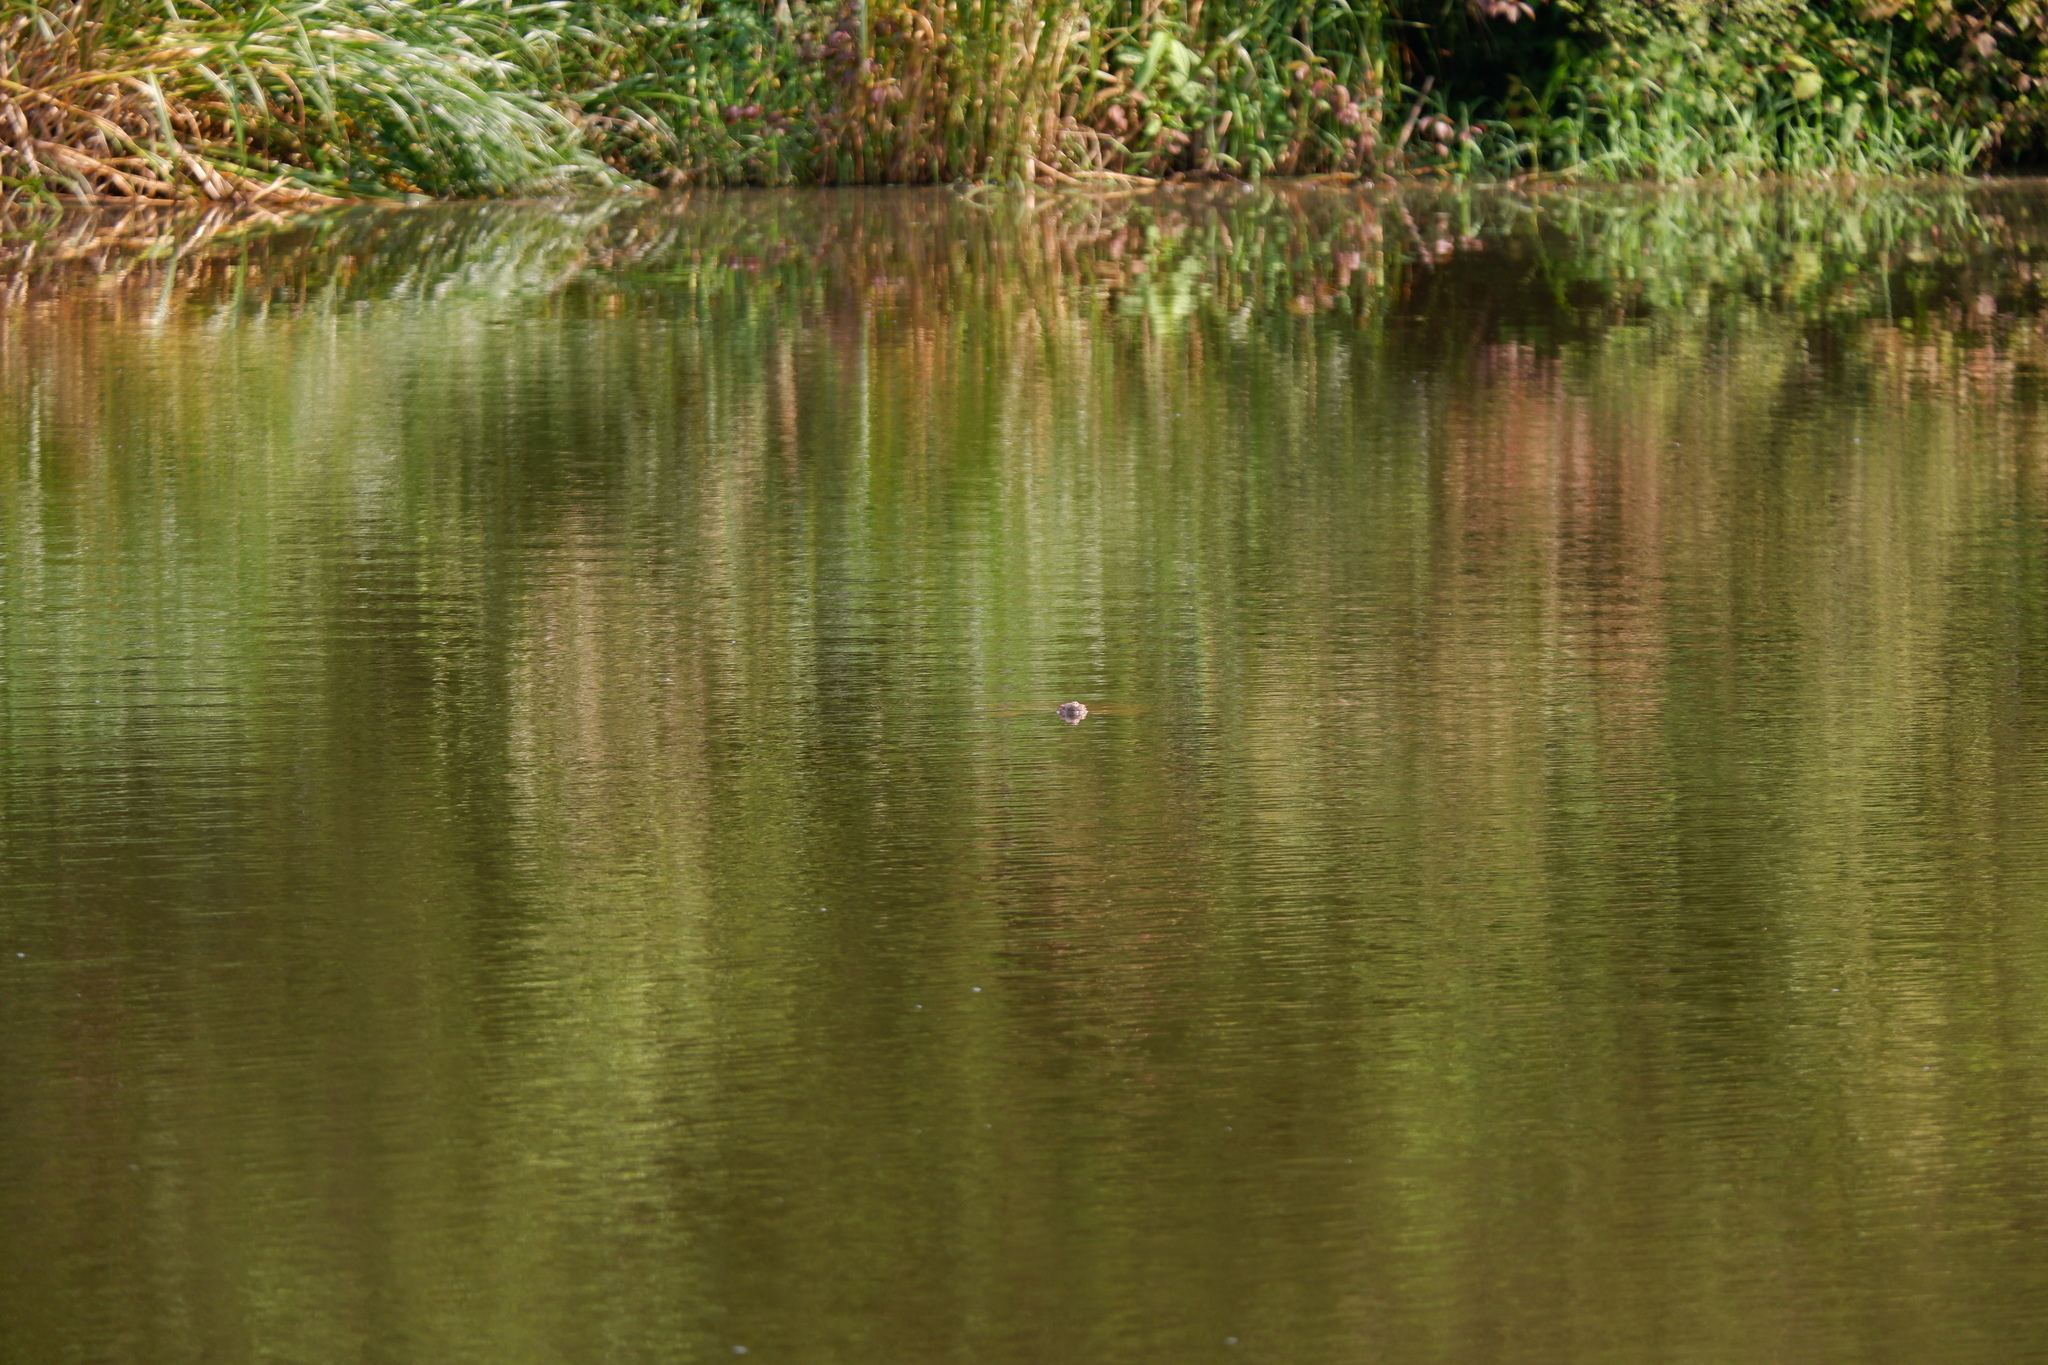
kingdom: Animalia
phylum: Chordata
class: Testudines
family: Chelydridae
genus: Chelydra
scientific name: Chelydra serpentina
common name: Common snapping turtle
